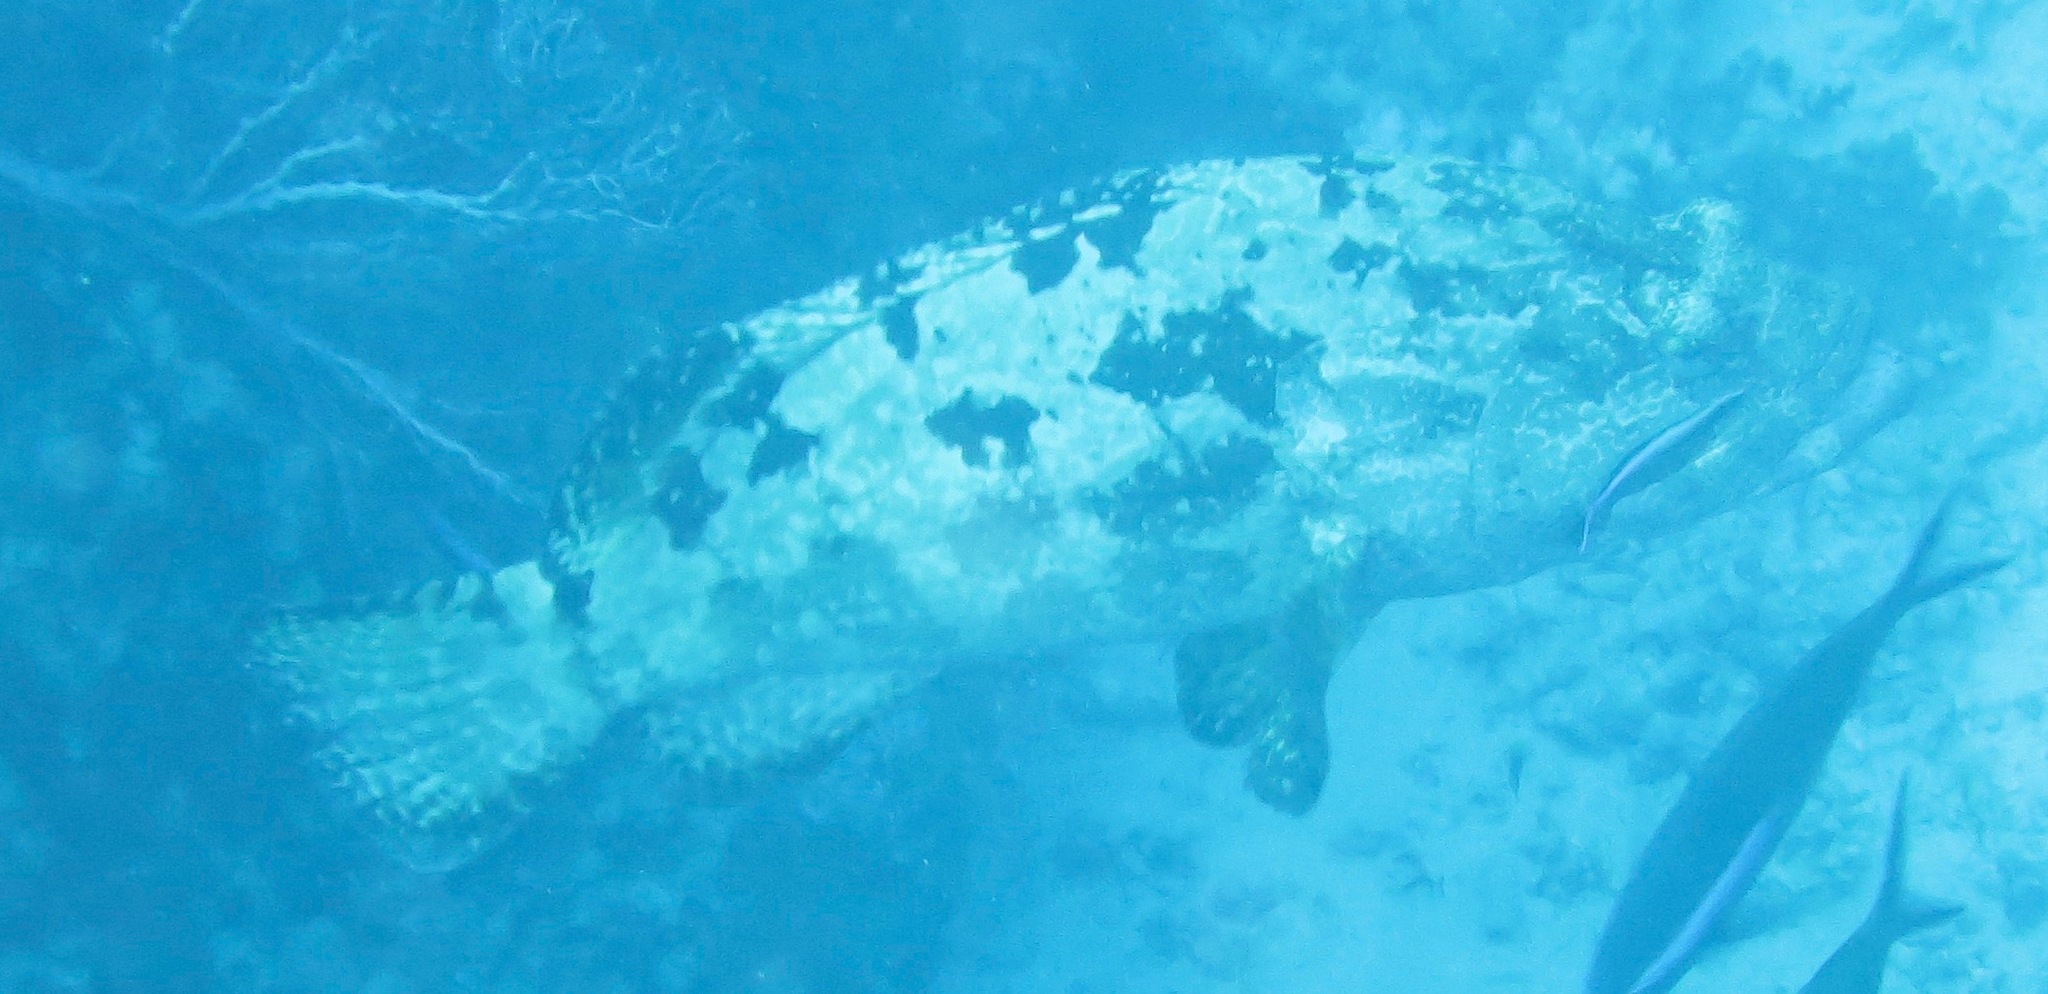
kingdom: Animalia
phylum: Chordata
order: Perciformes
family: Serranidae
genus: Epinephelus
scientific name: Epinephelus fuscoguttatus
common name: Brown-marbled grouper
